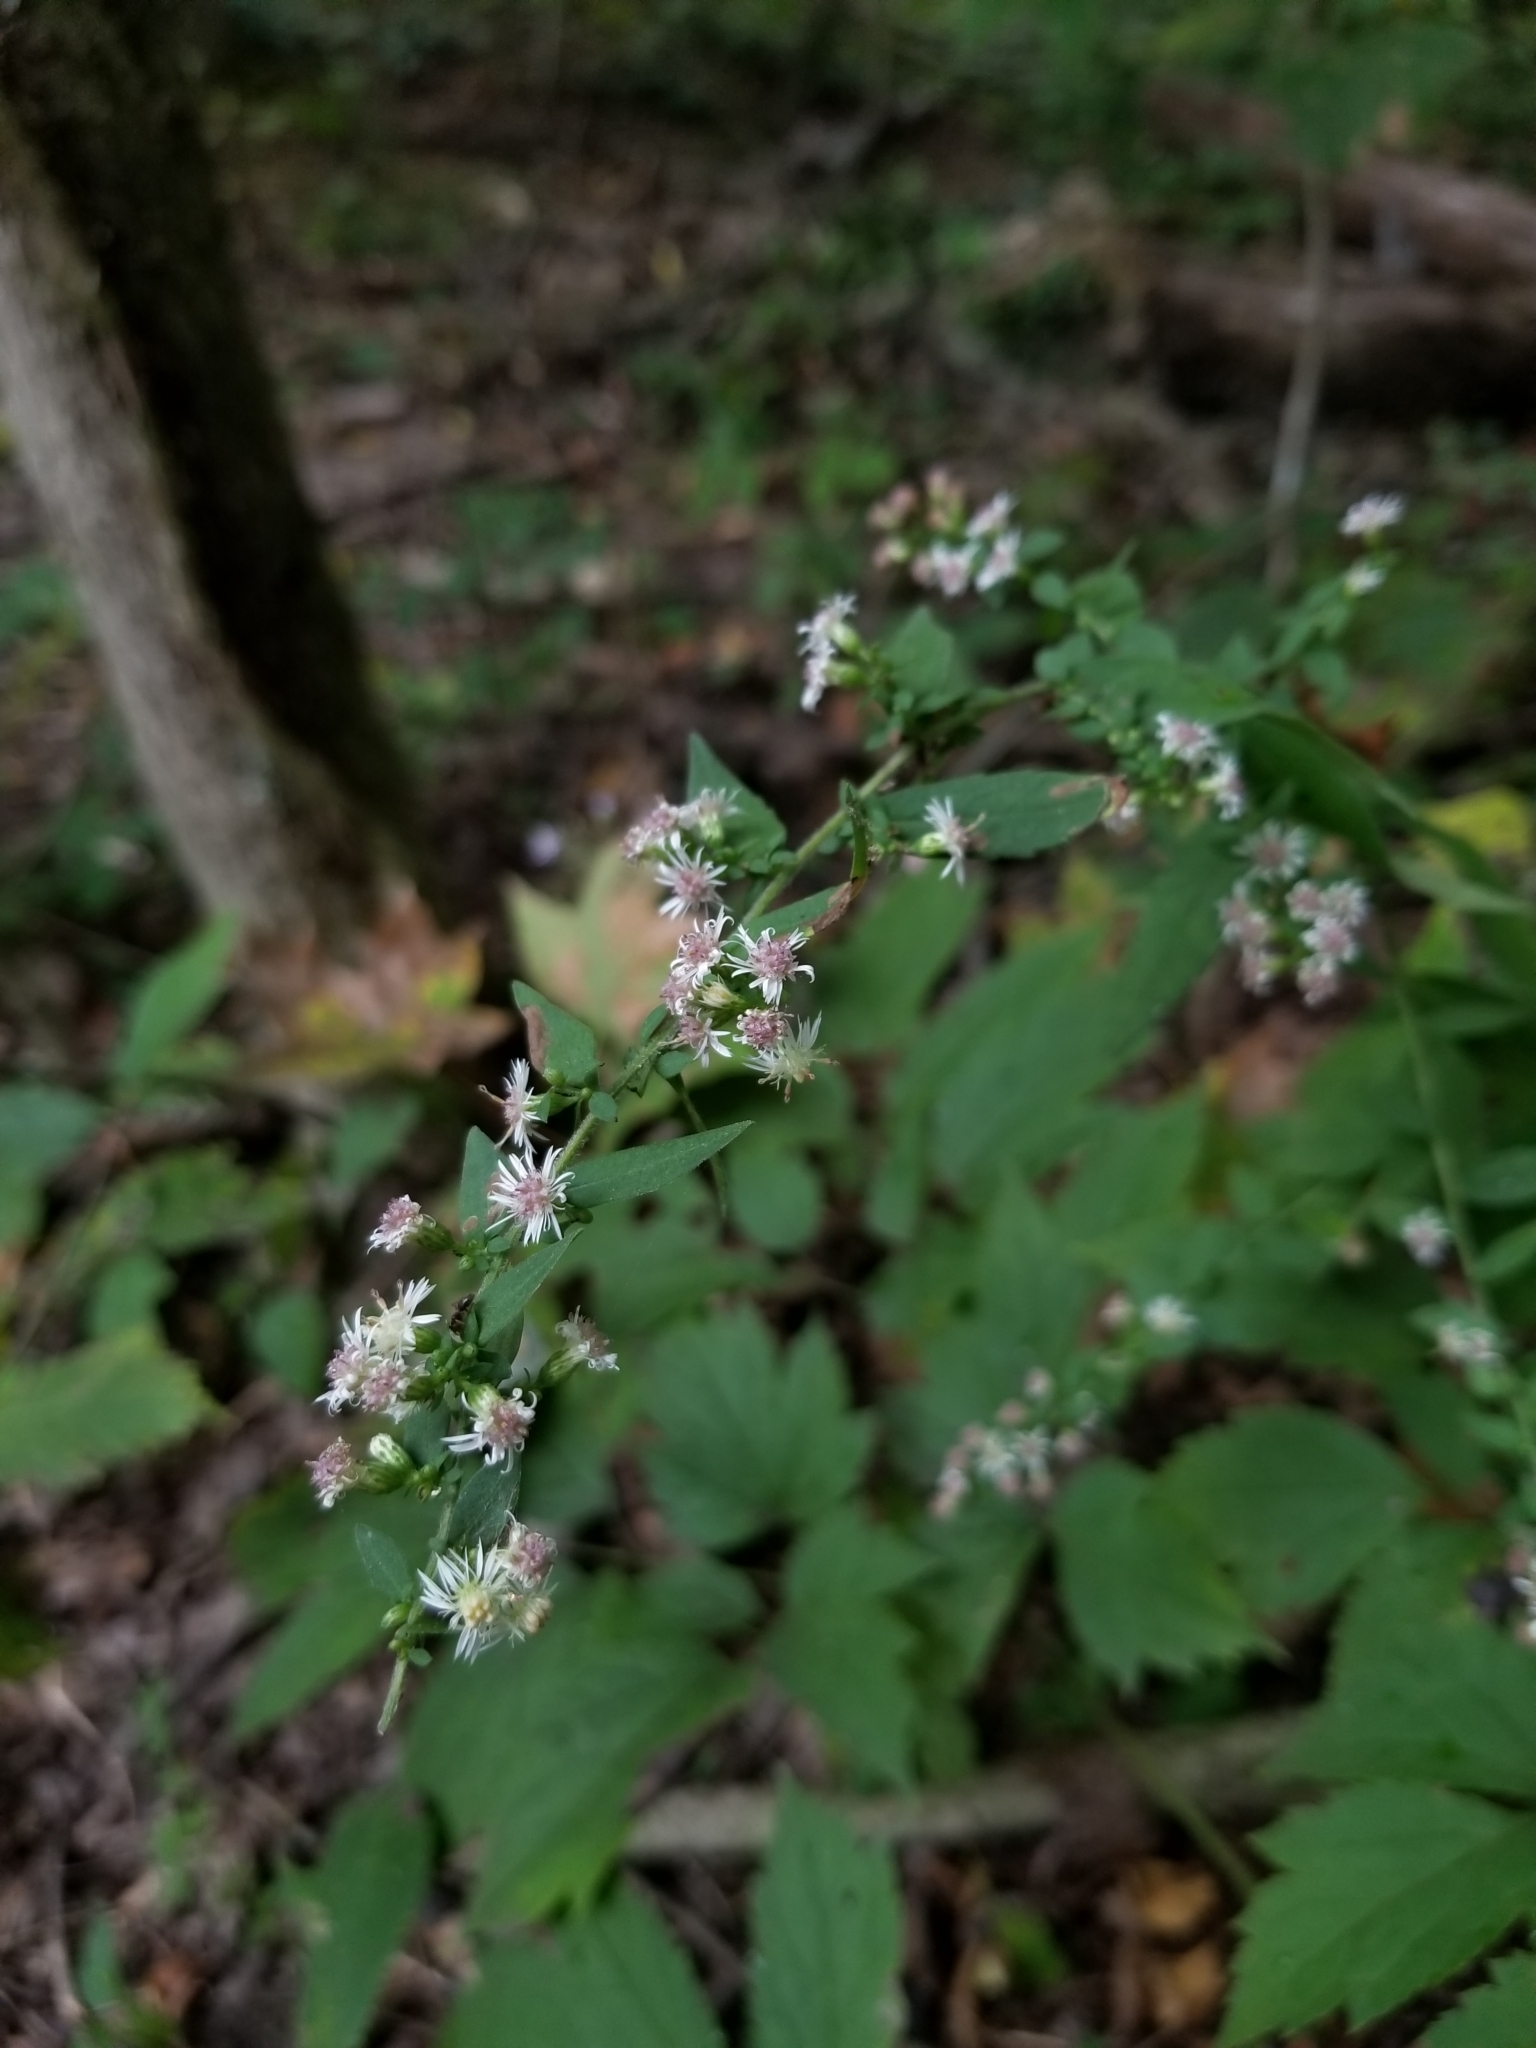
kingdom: Plantae
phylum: Tracheophyta
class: Magnoliopsida
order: Asterales
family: Asteraceae
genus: Symphyotrichum
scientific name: Symphyotrichum lateriflorum
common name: Calico aster
